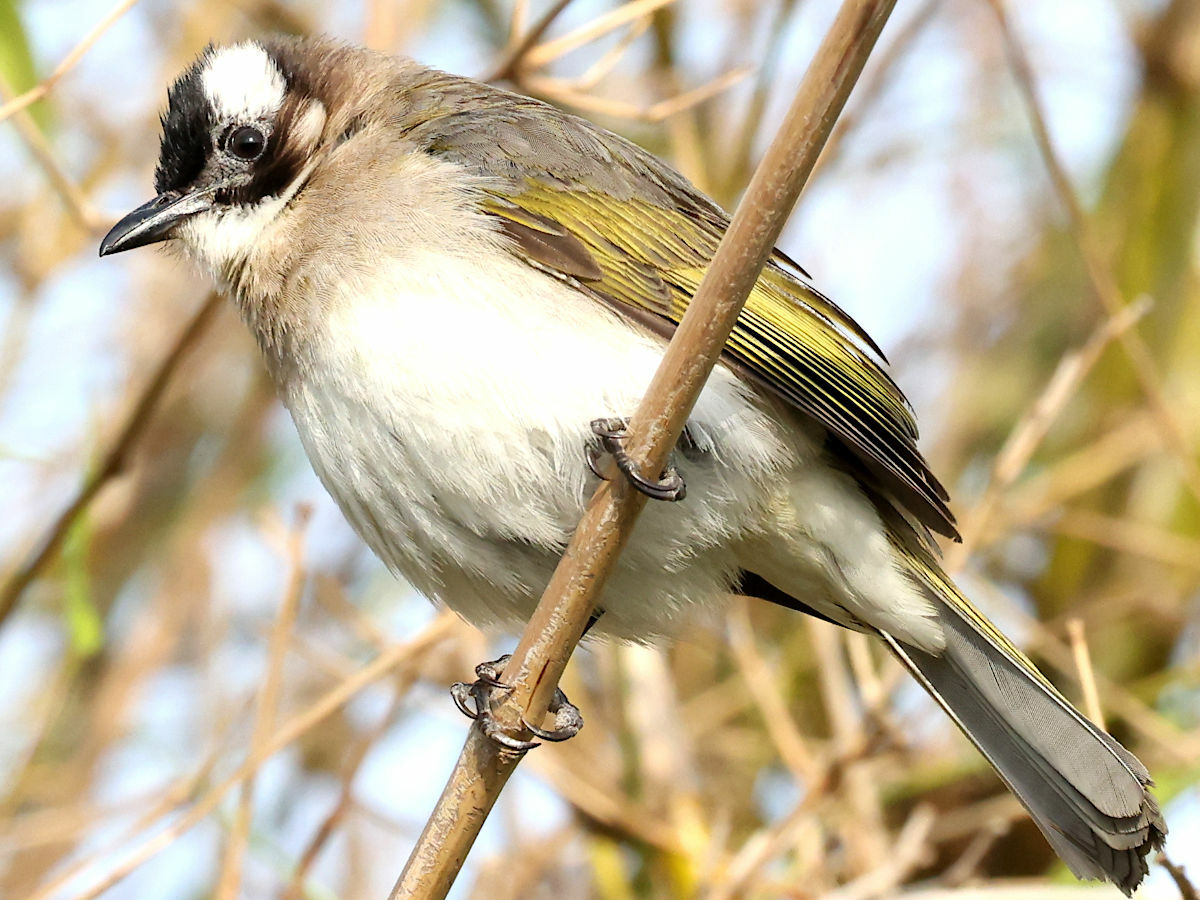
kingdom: Animalia
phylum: Chordata
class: Aves
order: Passeriformes
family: Pycnonotidae
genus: Pycnonotus
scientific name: Pycnonotus sinensis
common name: Light-vented bulbul
